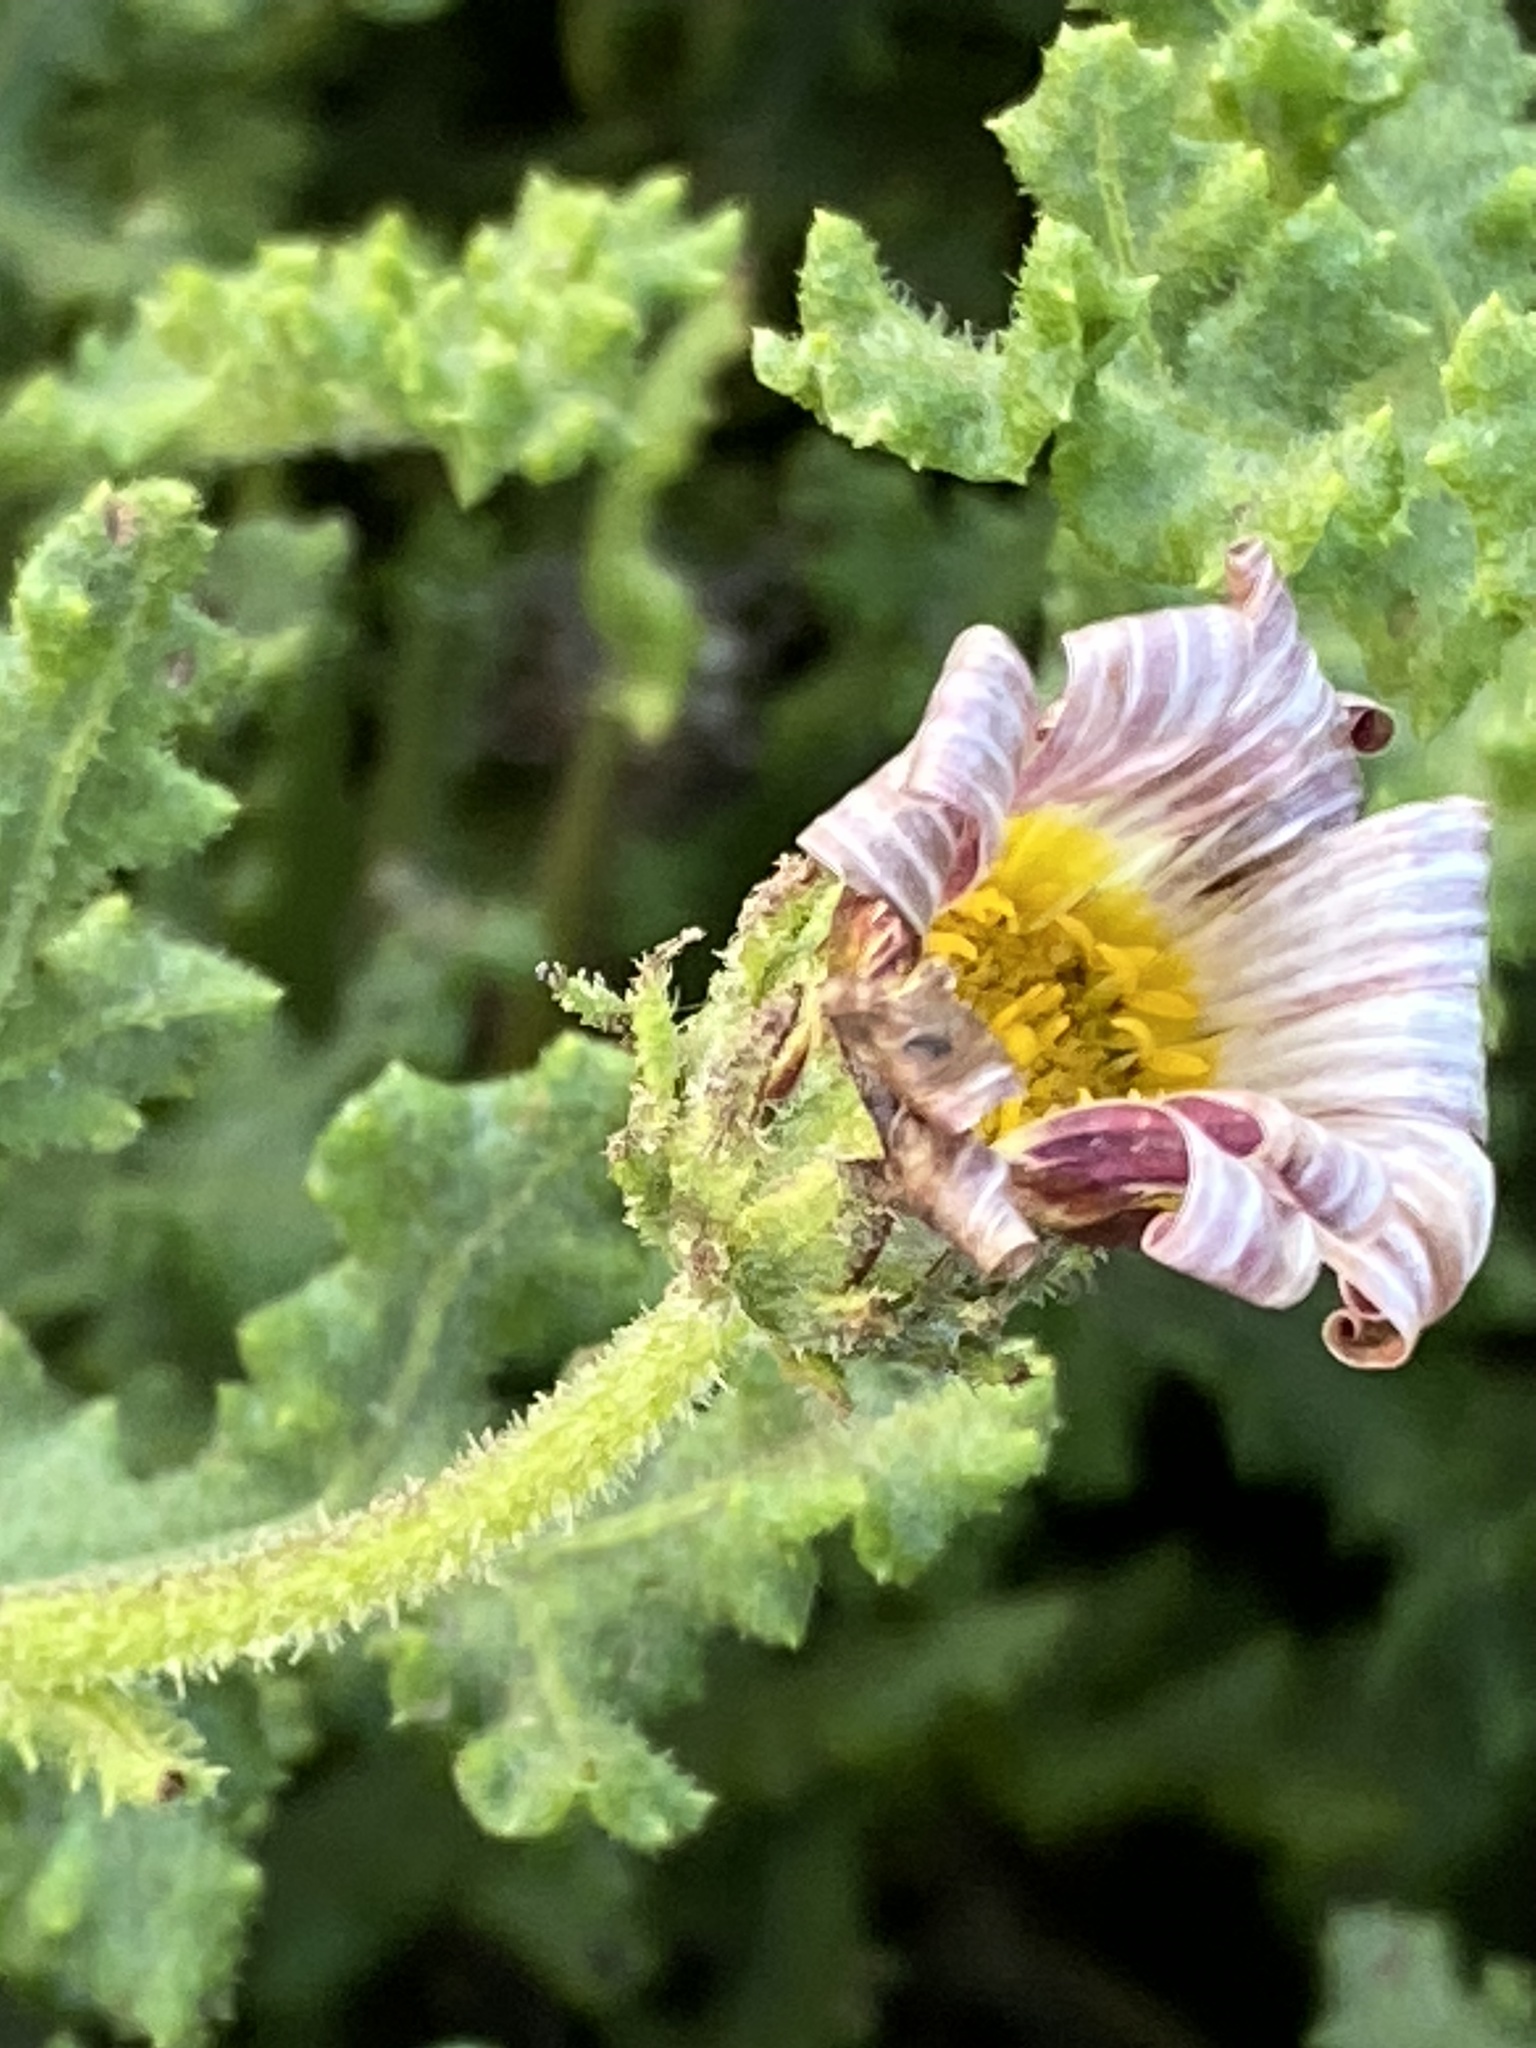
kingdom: Plantae
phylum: Tracheophyta
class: Magnoliopsida
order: Asterales
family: Asteraceae
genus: Arctotis
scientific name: Arctotis aspera
